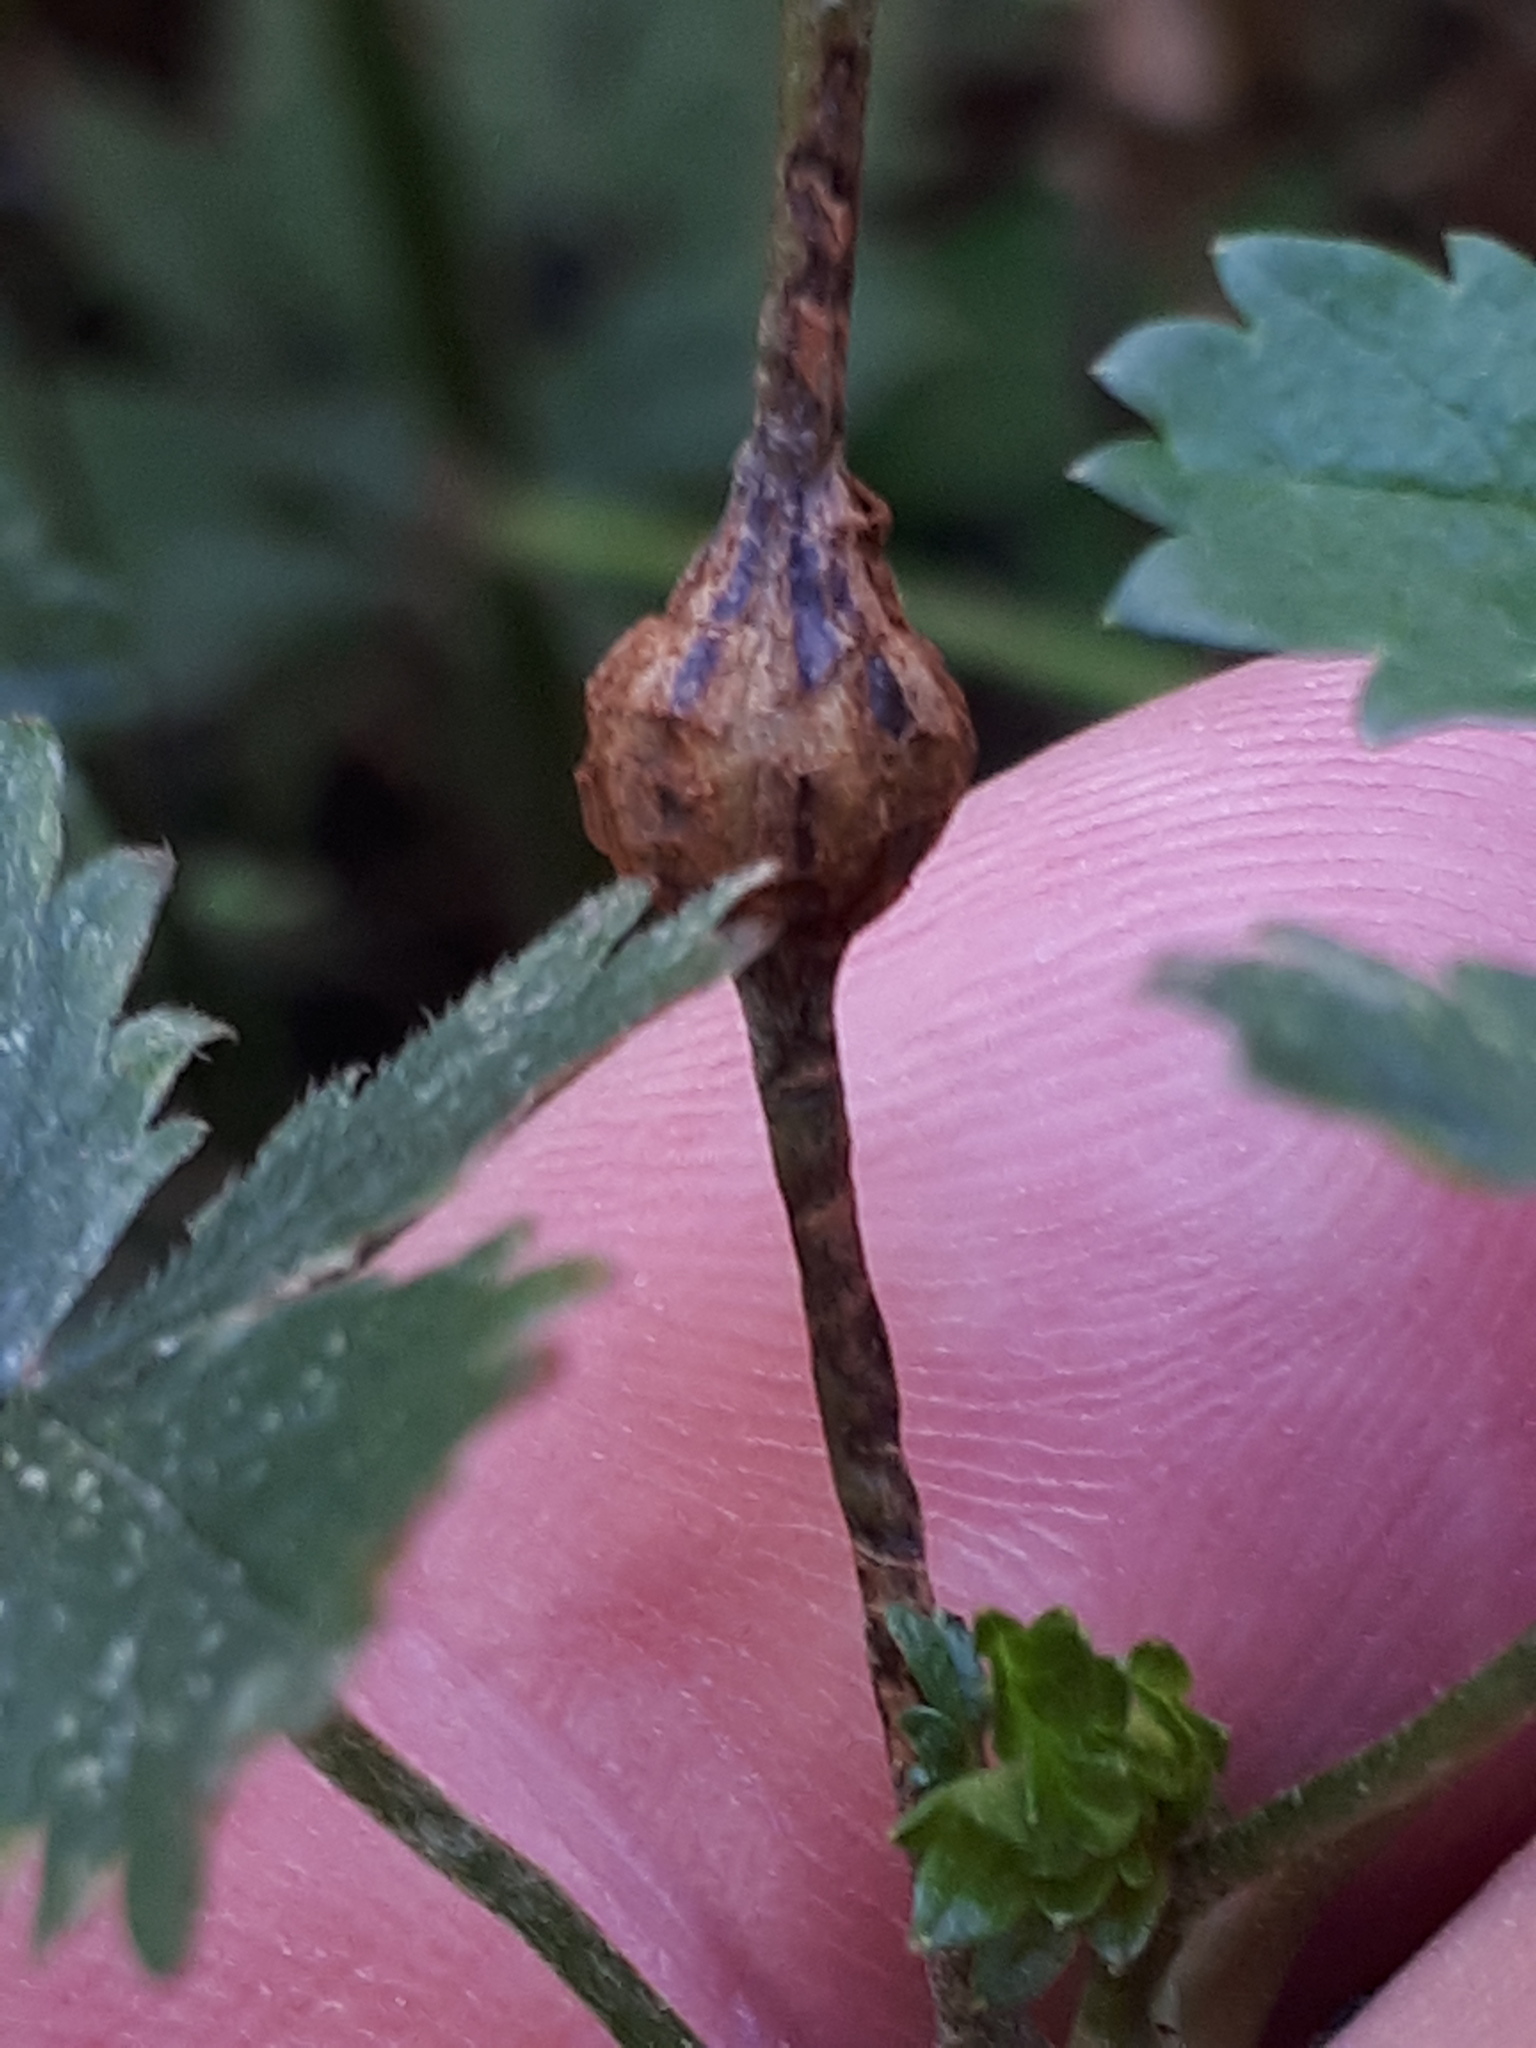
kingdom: Animalia
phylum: Arthropoda
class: Insecta
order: Hymenoptera
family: Cynipidae
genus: Xestophanes
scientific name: Xestophanes potentillae
